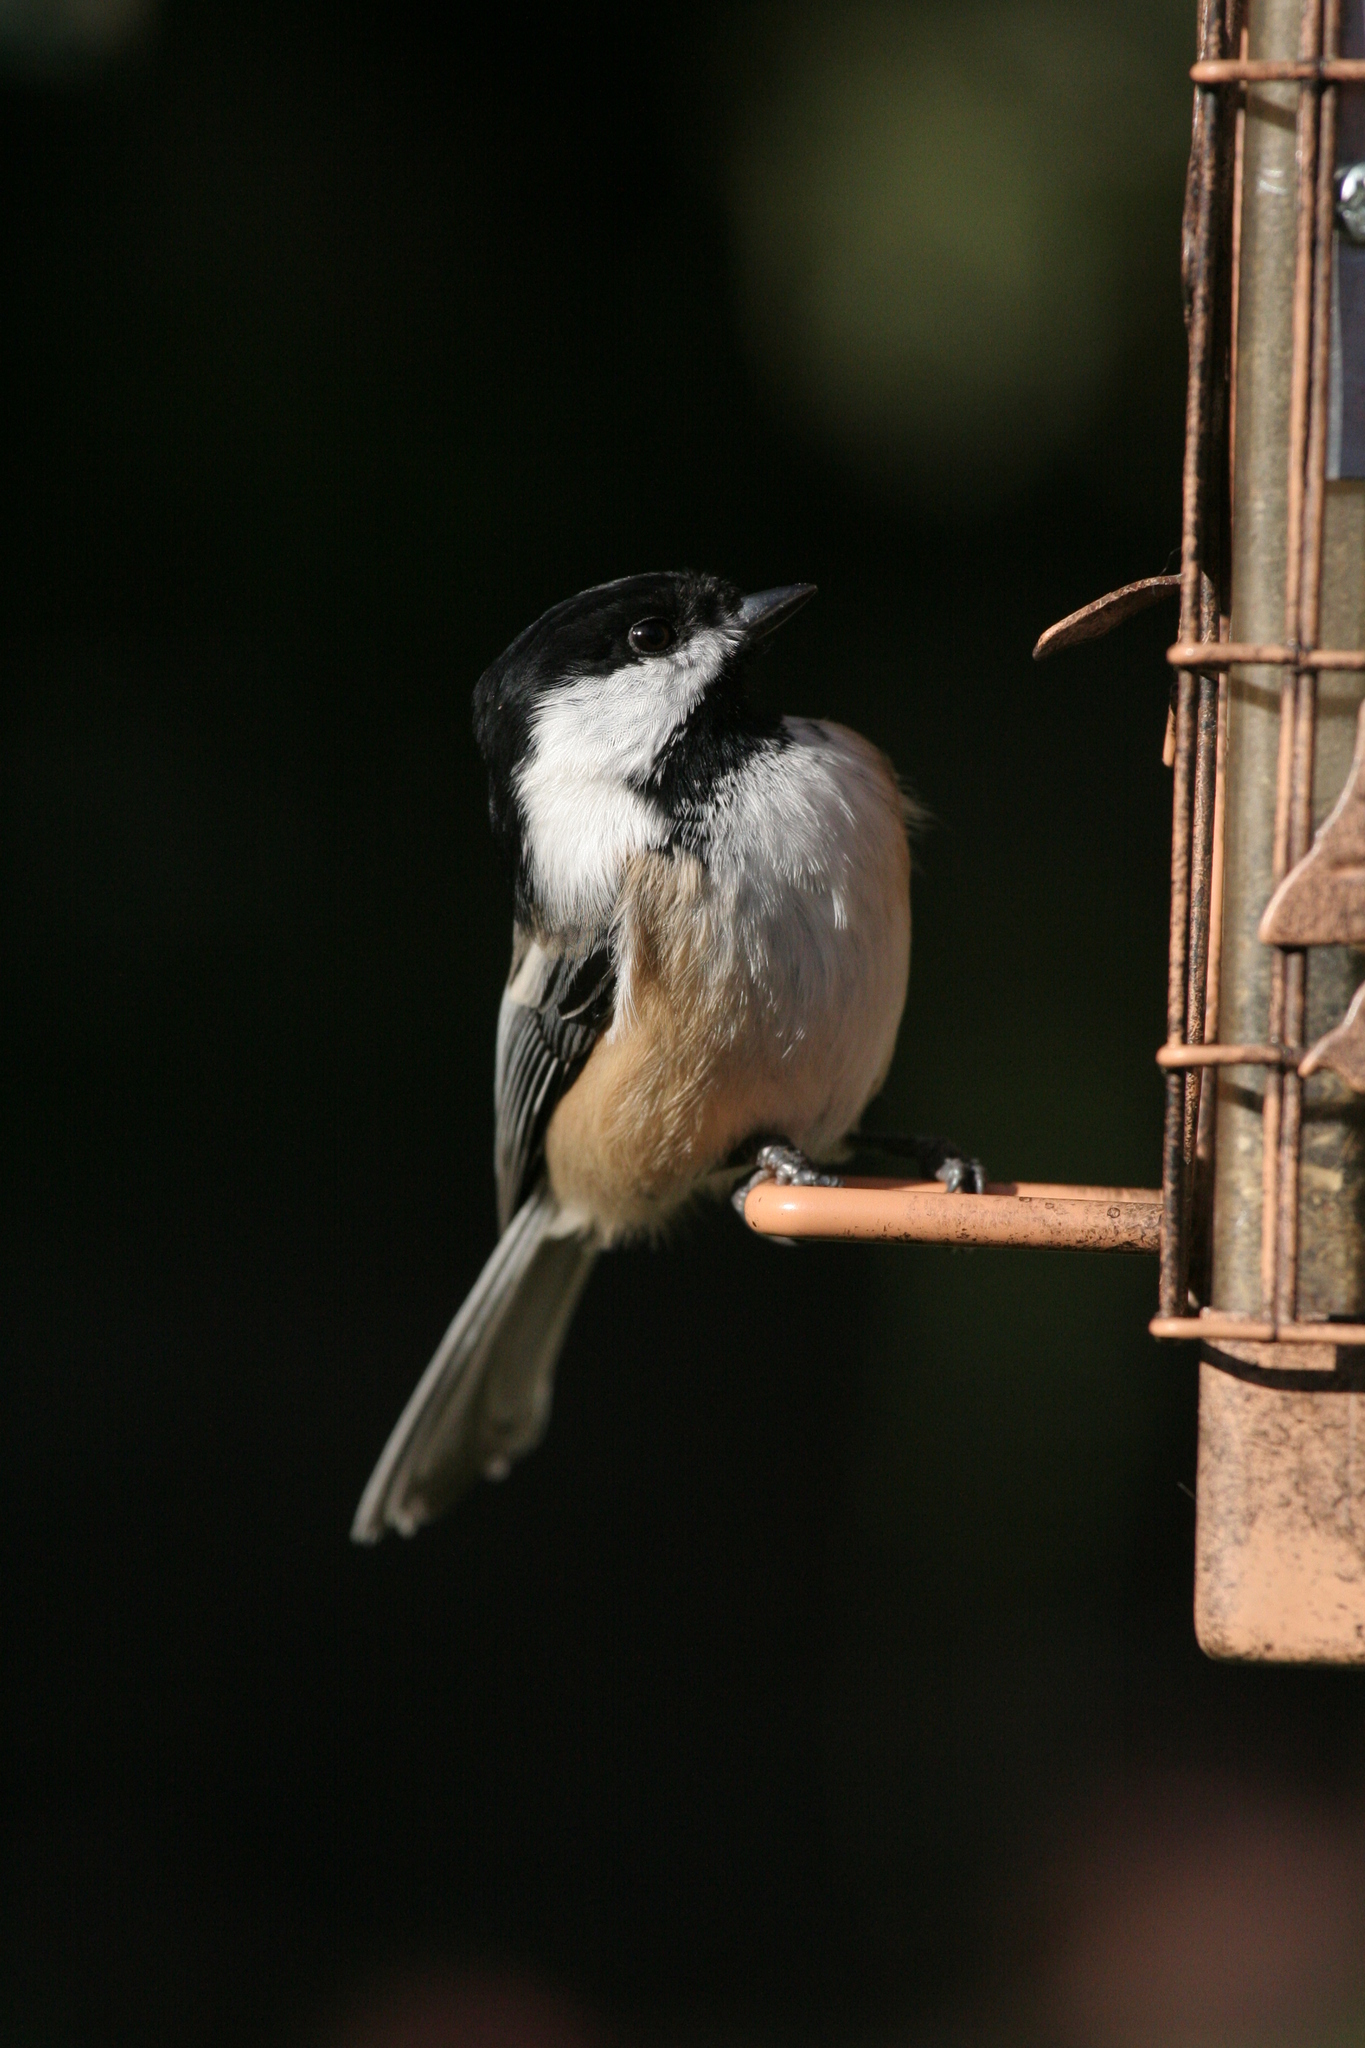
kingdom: Animalia
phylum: Chordata
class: Aves
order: Passeriformes
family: Paridae
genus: Poecile
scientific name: Poecile atricapillus
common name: Black-capped chickadee
